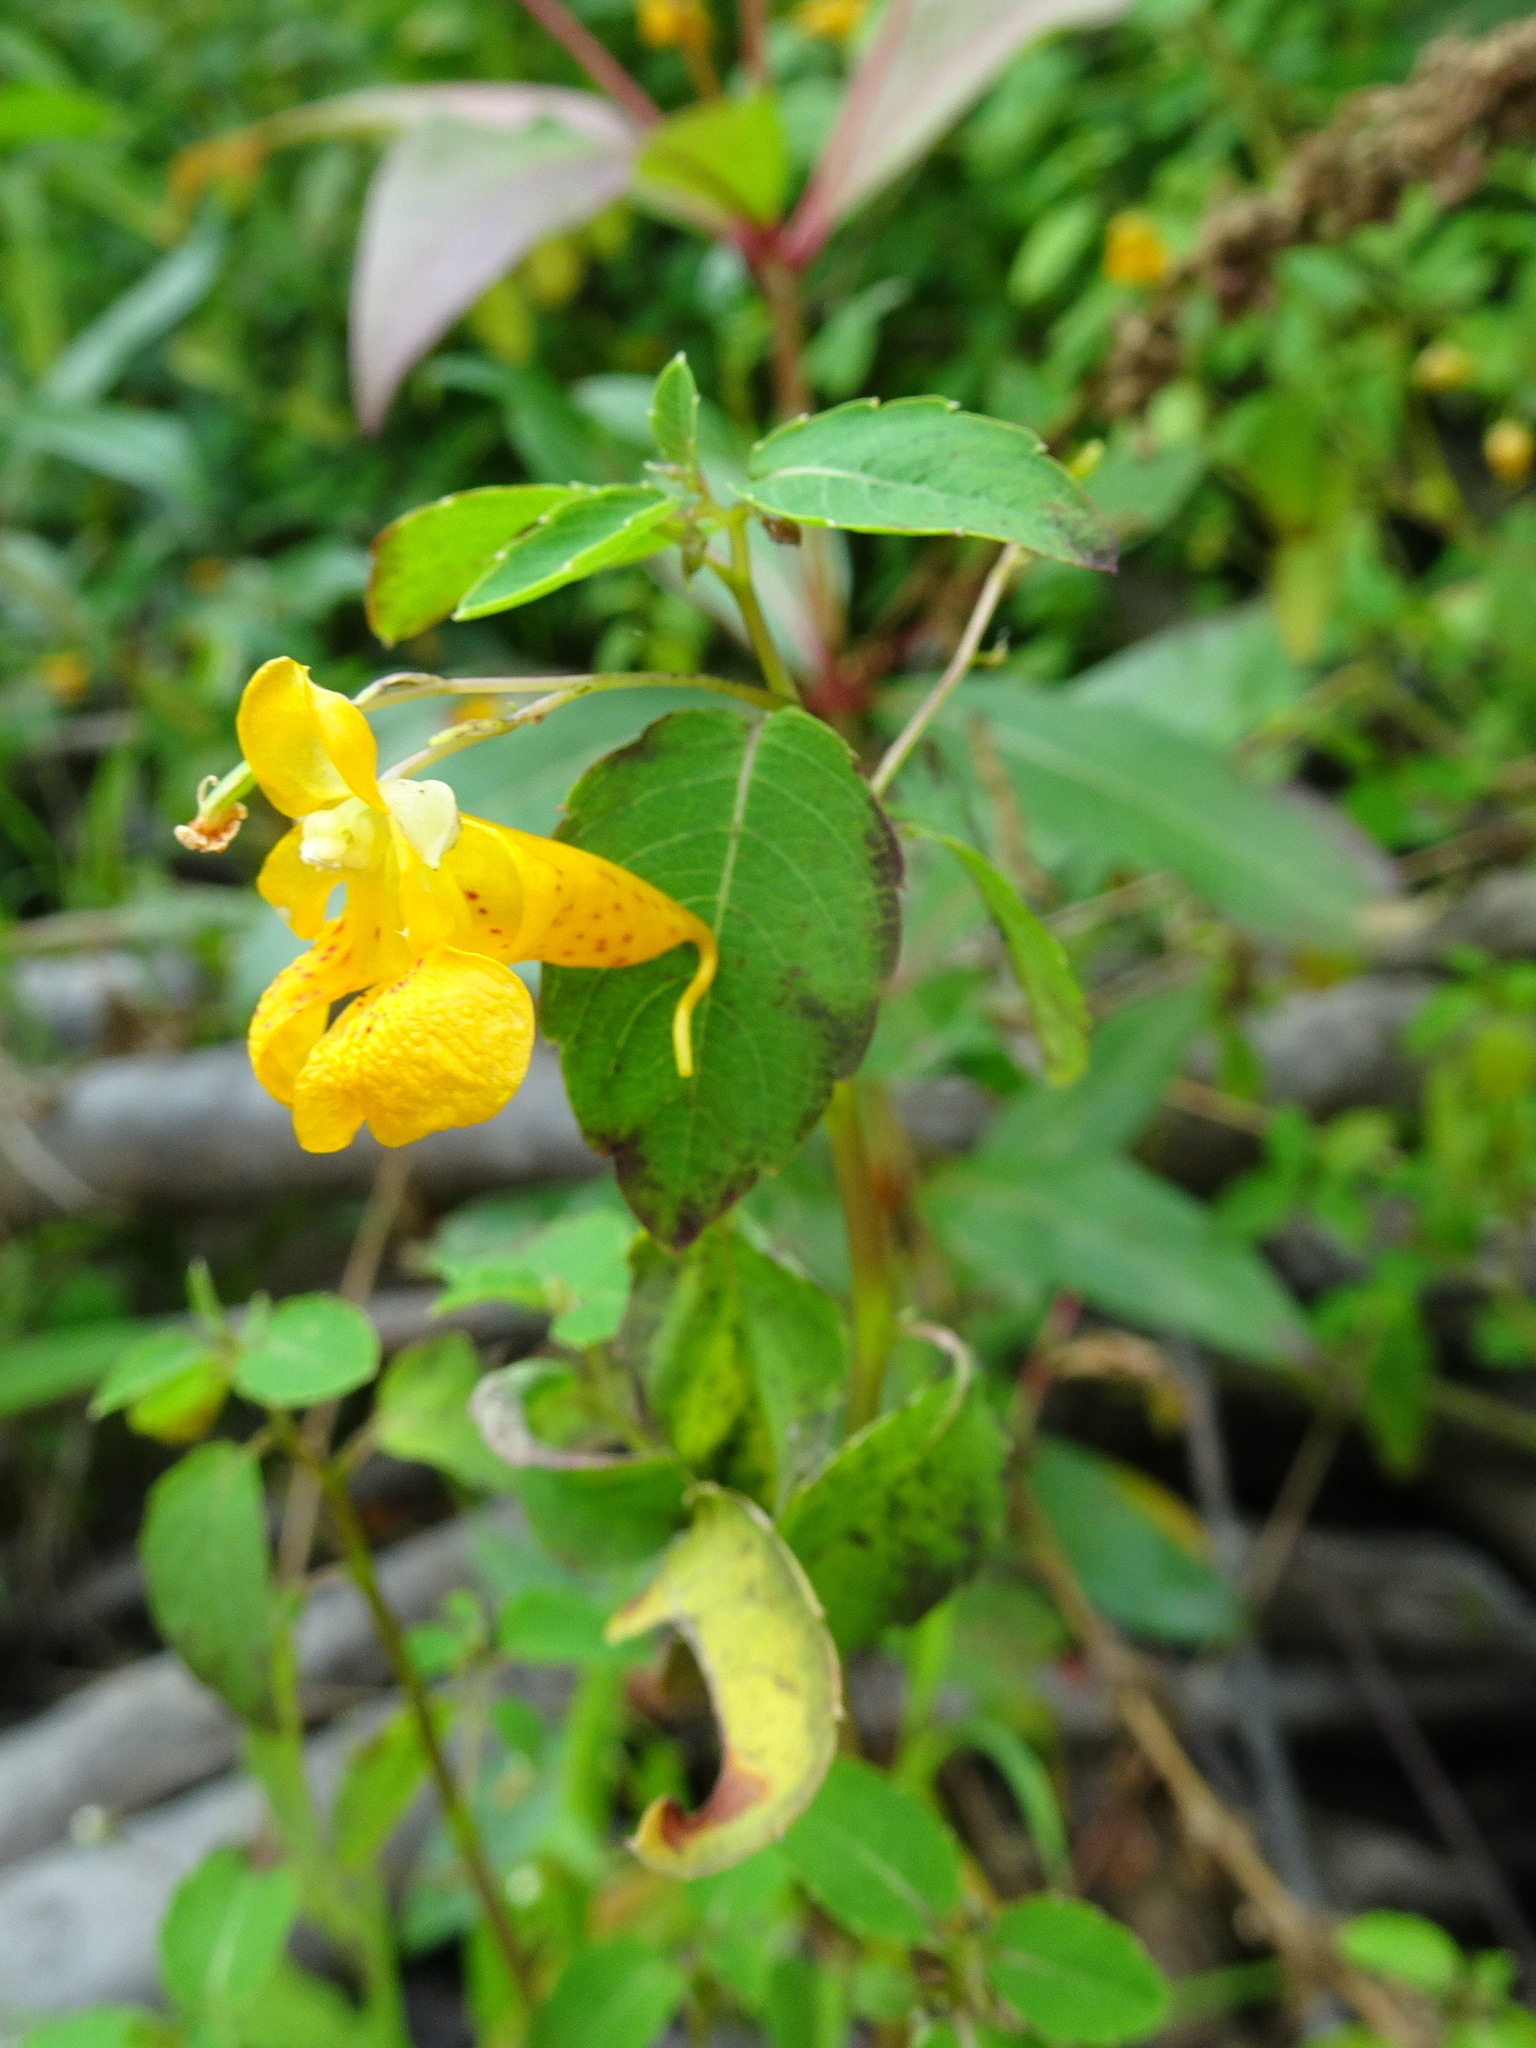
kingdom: Plantae
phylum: Tracheophyta
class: Magnoliopsida
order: Ericales
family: Balsaminaceae
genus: Impatiens
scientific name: Impatiens capensis
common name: Orange balsam
